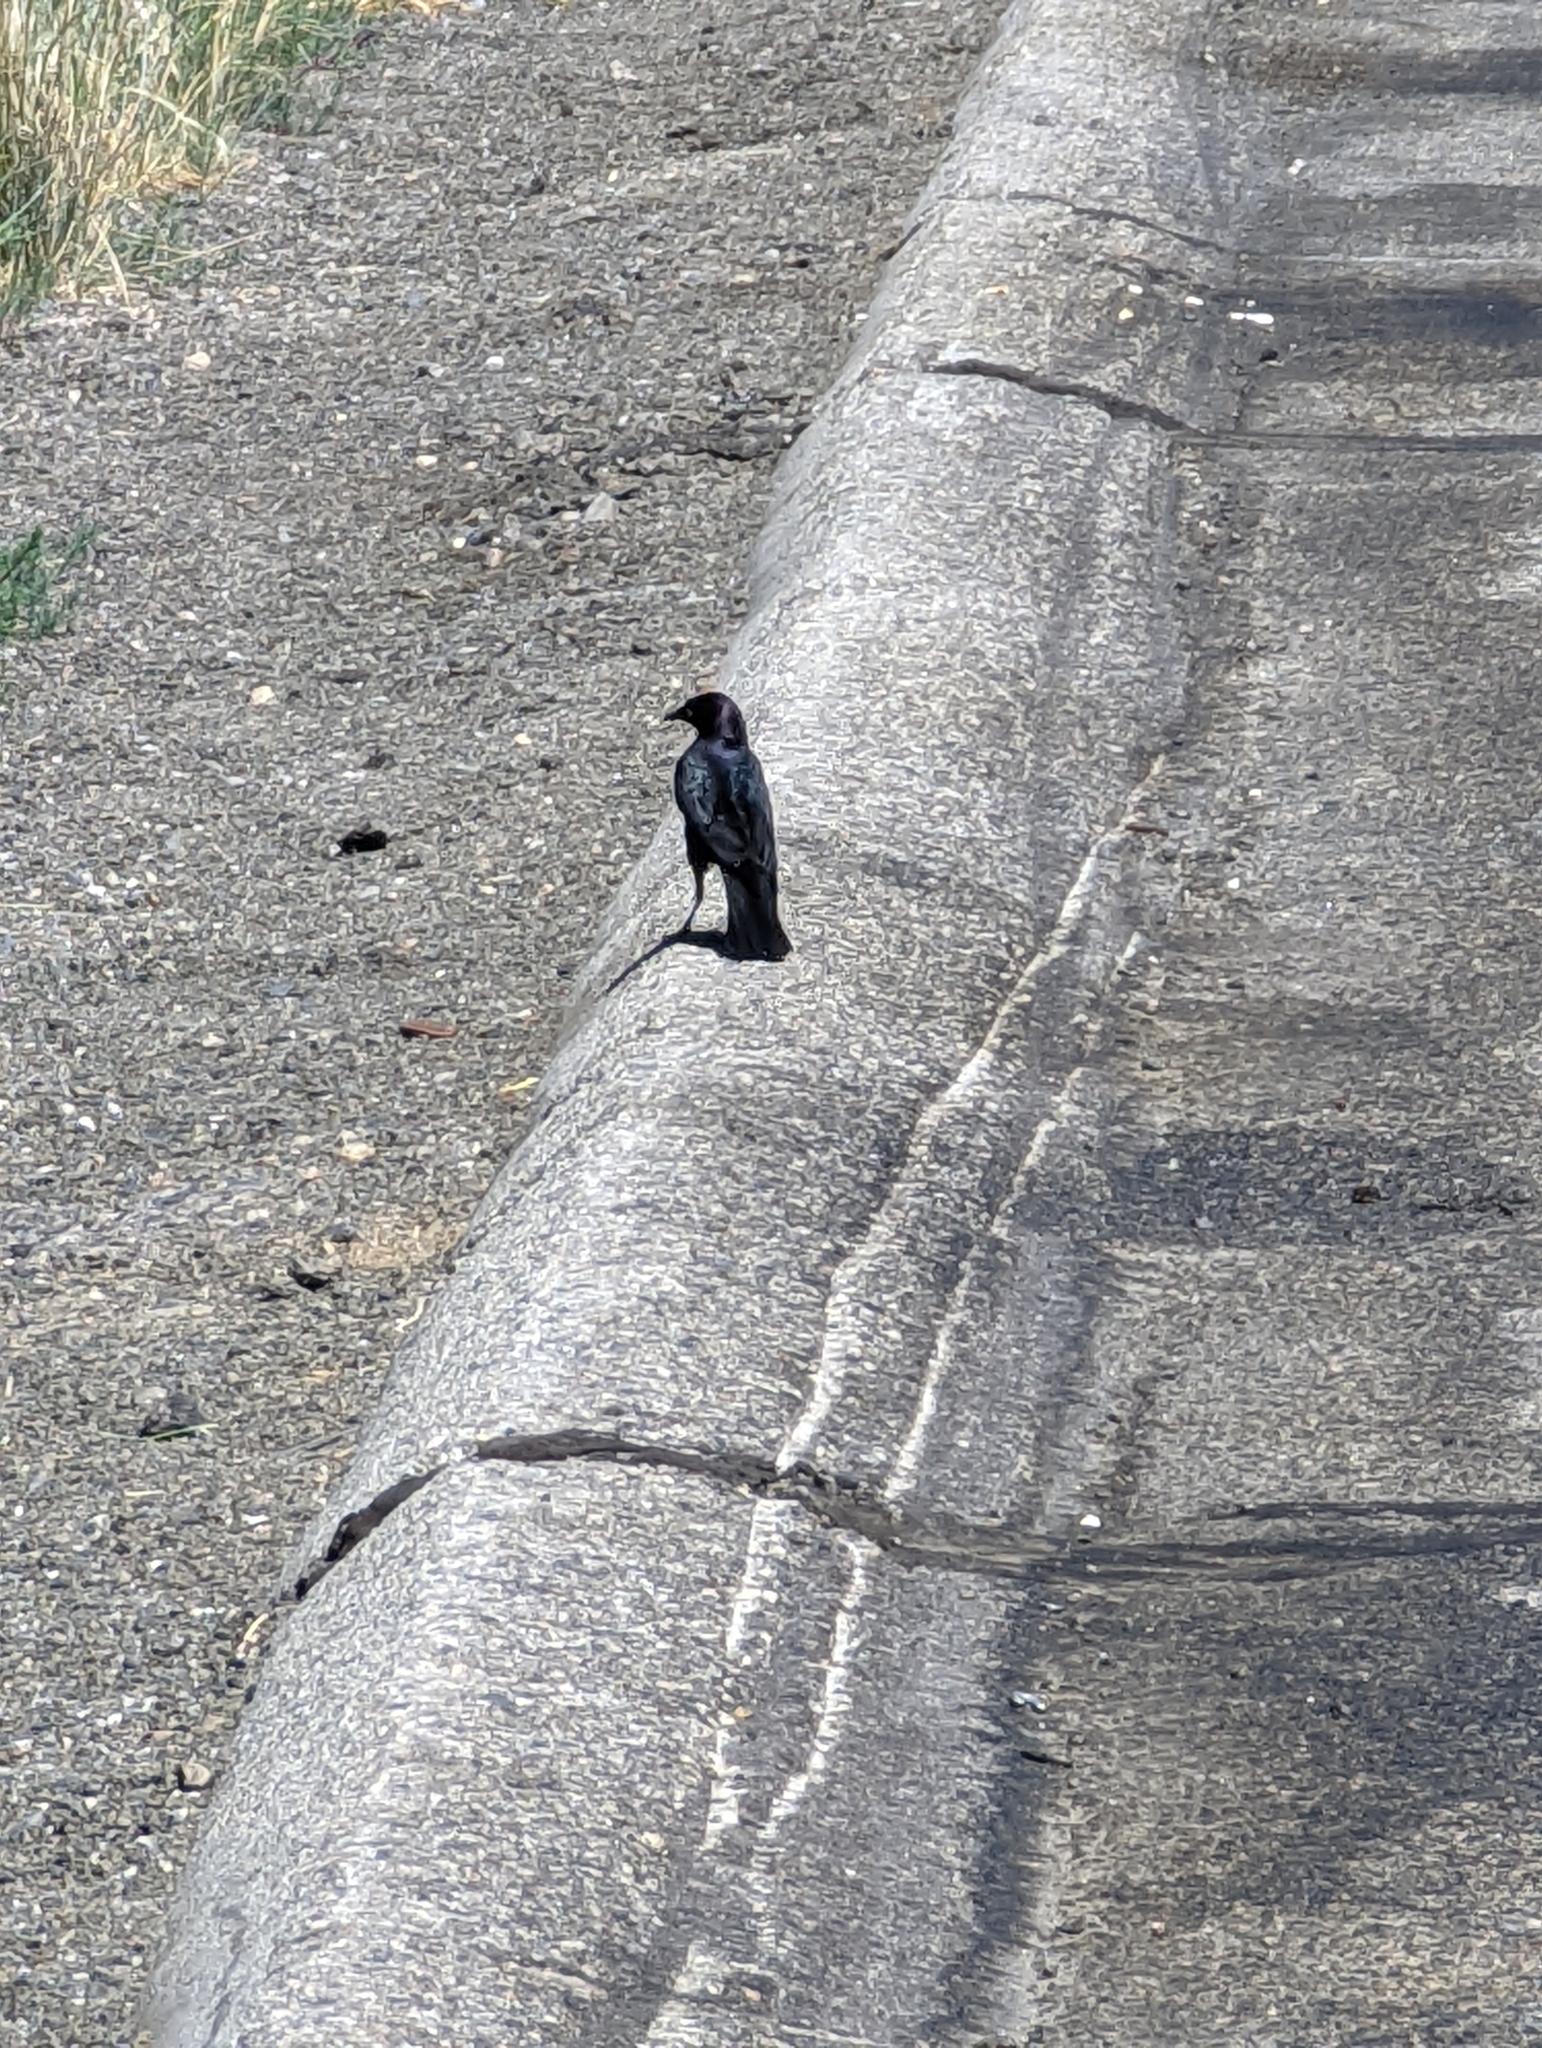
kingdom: Animalia
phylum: Chordata
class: Aves
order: Passeriformes
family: Icteridae
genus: Euphagus
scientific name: Euphagus cyanocephalus
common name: Brewer's blackbird
